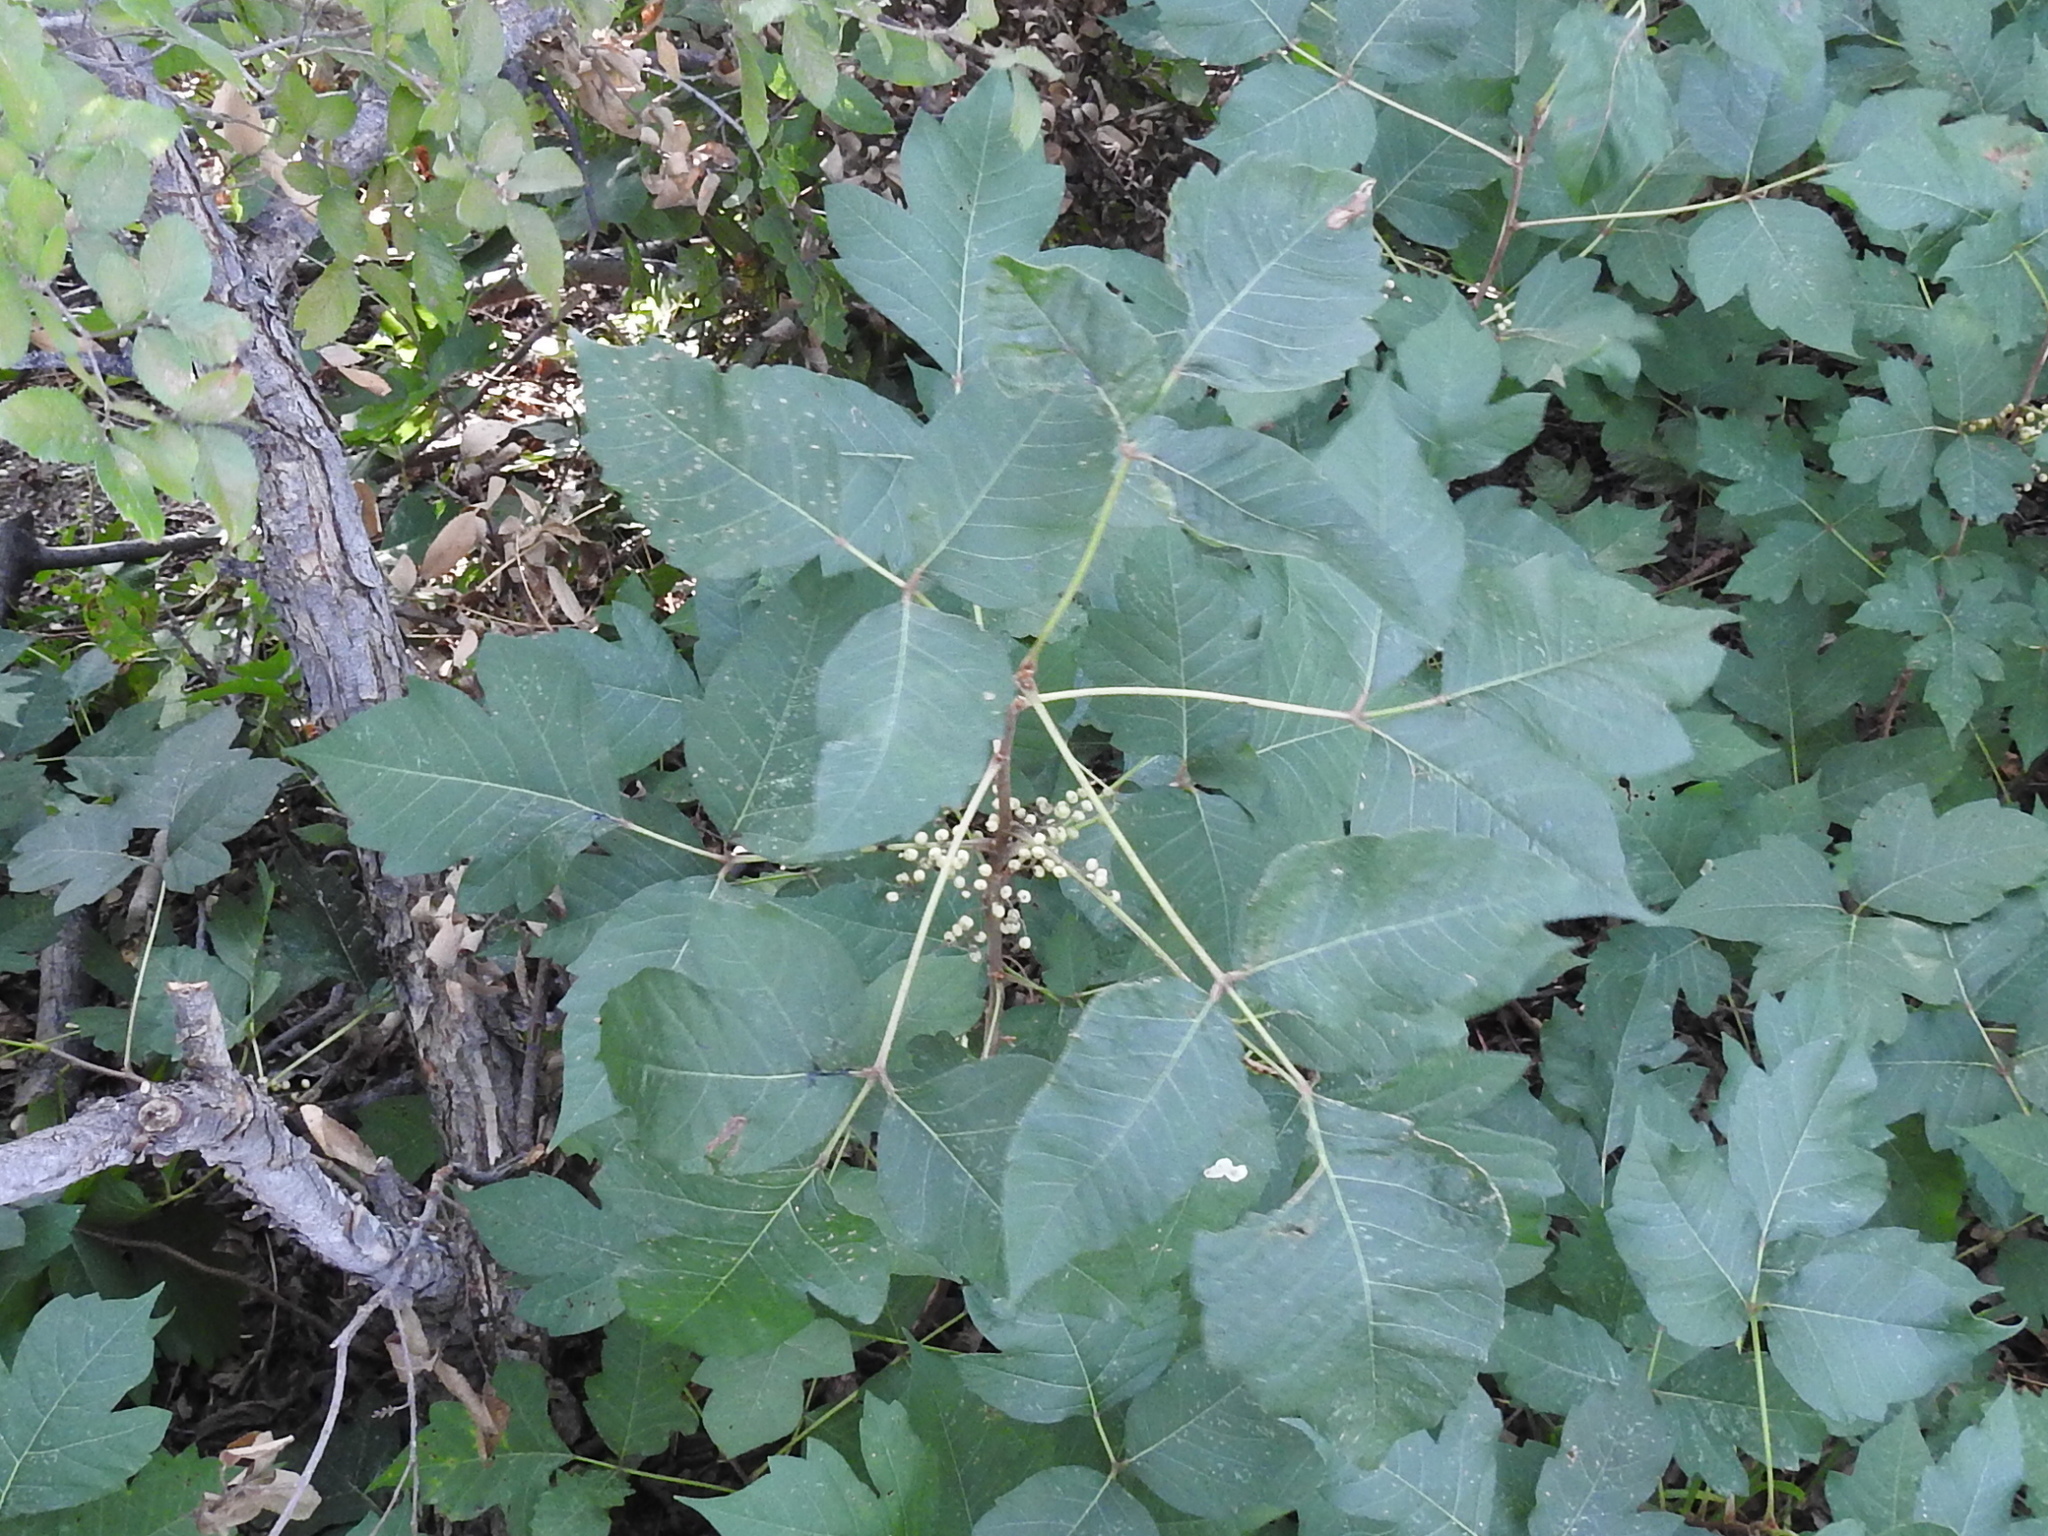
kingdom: Plantae
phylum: Tracheophyta
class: Magnoliopsida
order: Sapindales
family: Anacardiaceae
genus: Toxicodendron
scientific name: Toxicodendron radicans
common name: Poison ivy
